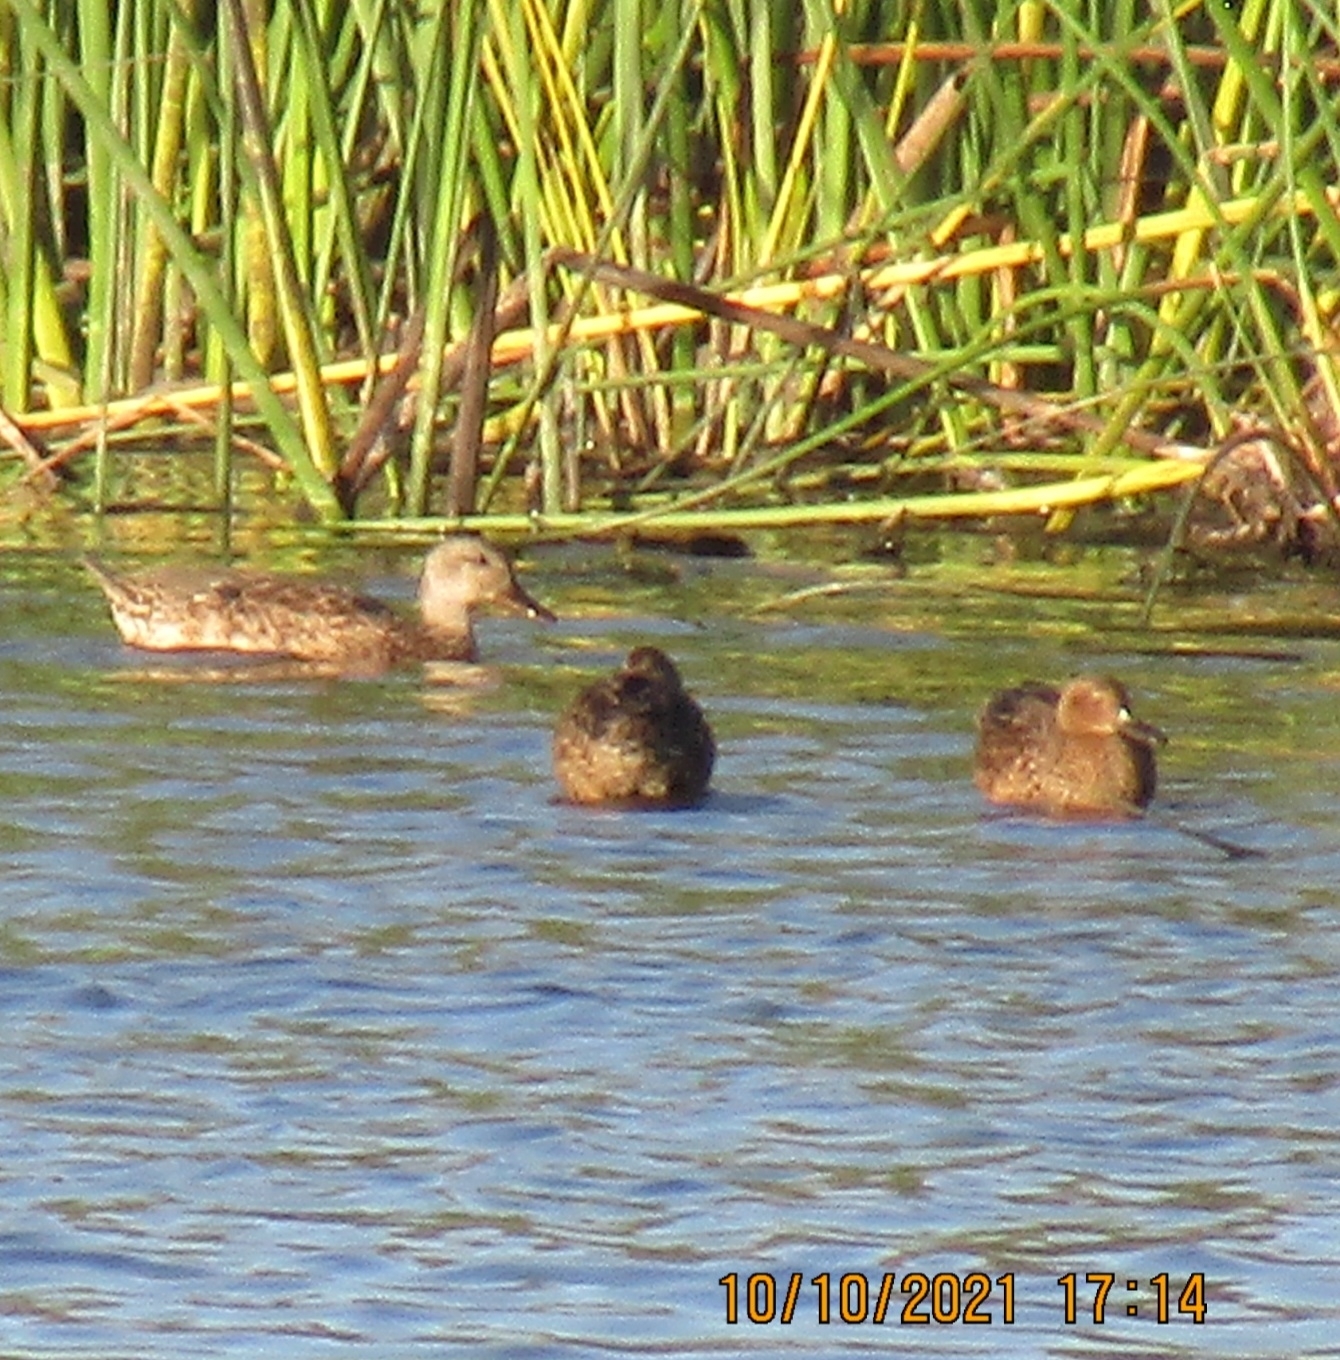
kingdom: Animalia
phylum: Chordata
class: Aves
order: Anseriformes
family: Anatidae
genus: Spatula
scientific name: Spatula cyanoptera
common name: Cinnamon teal
